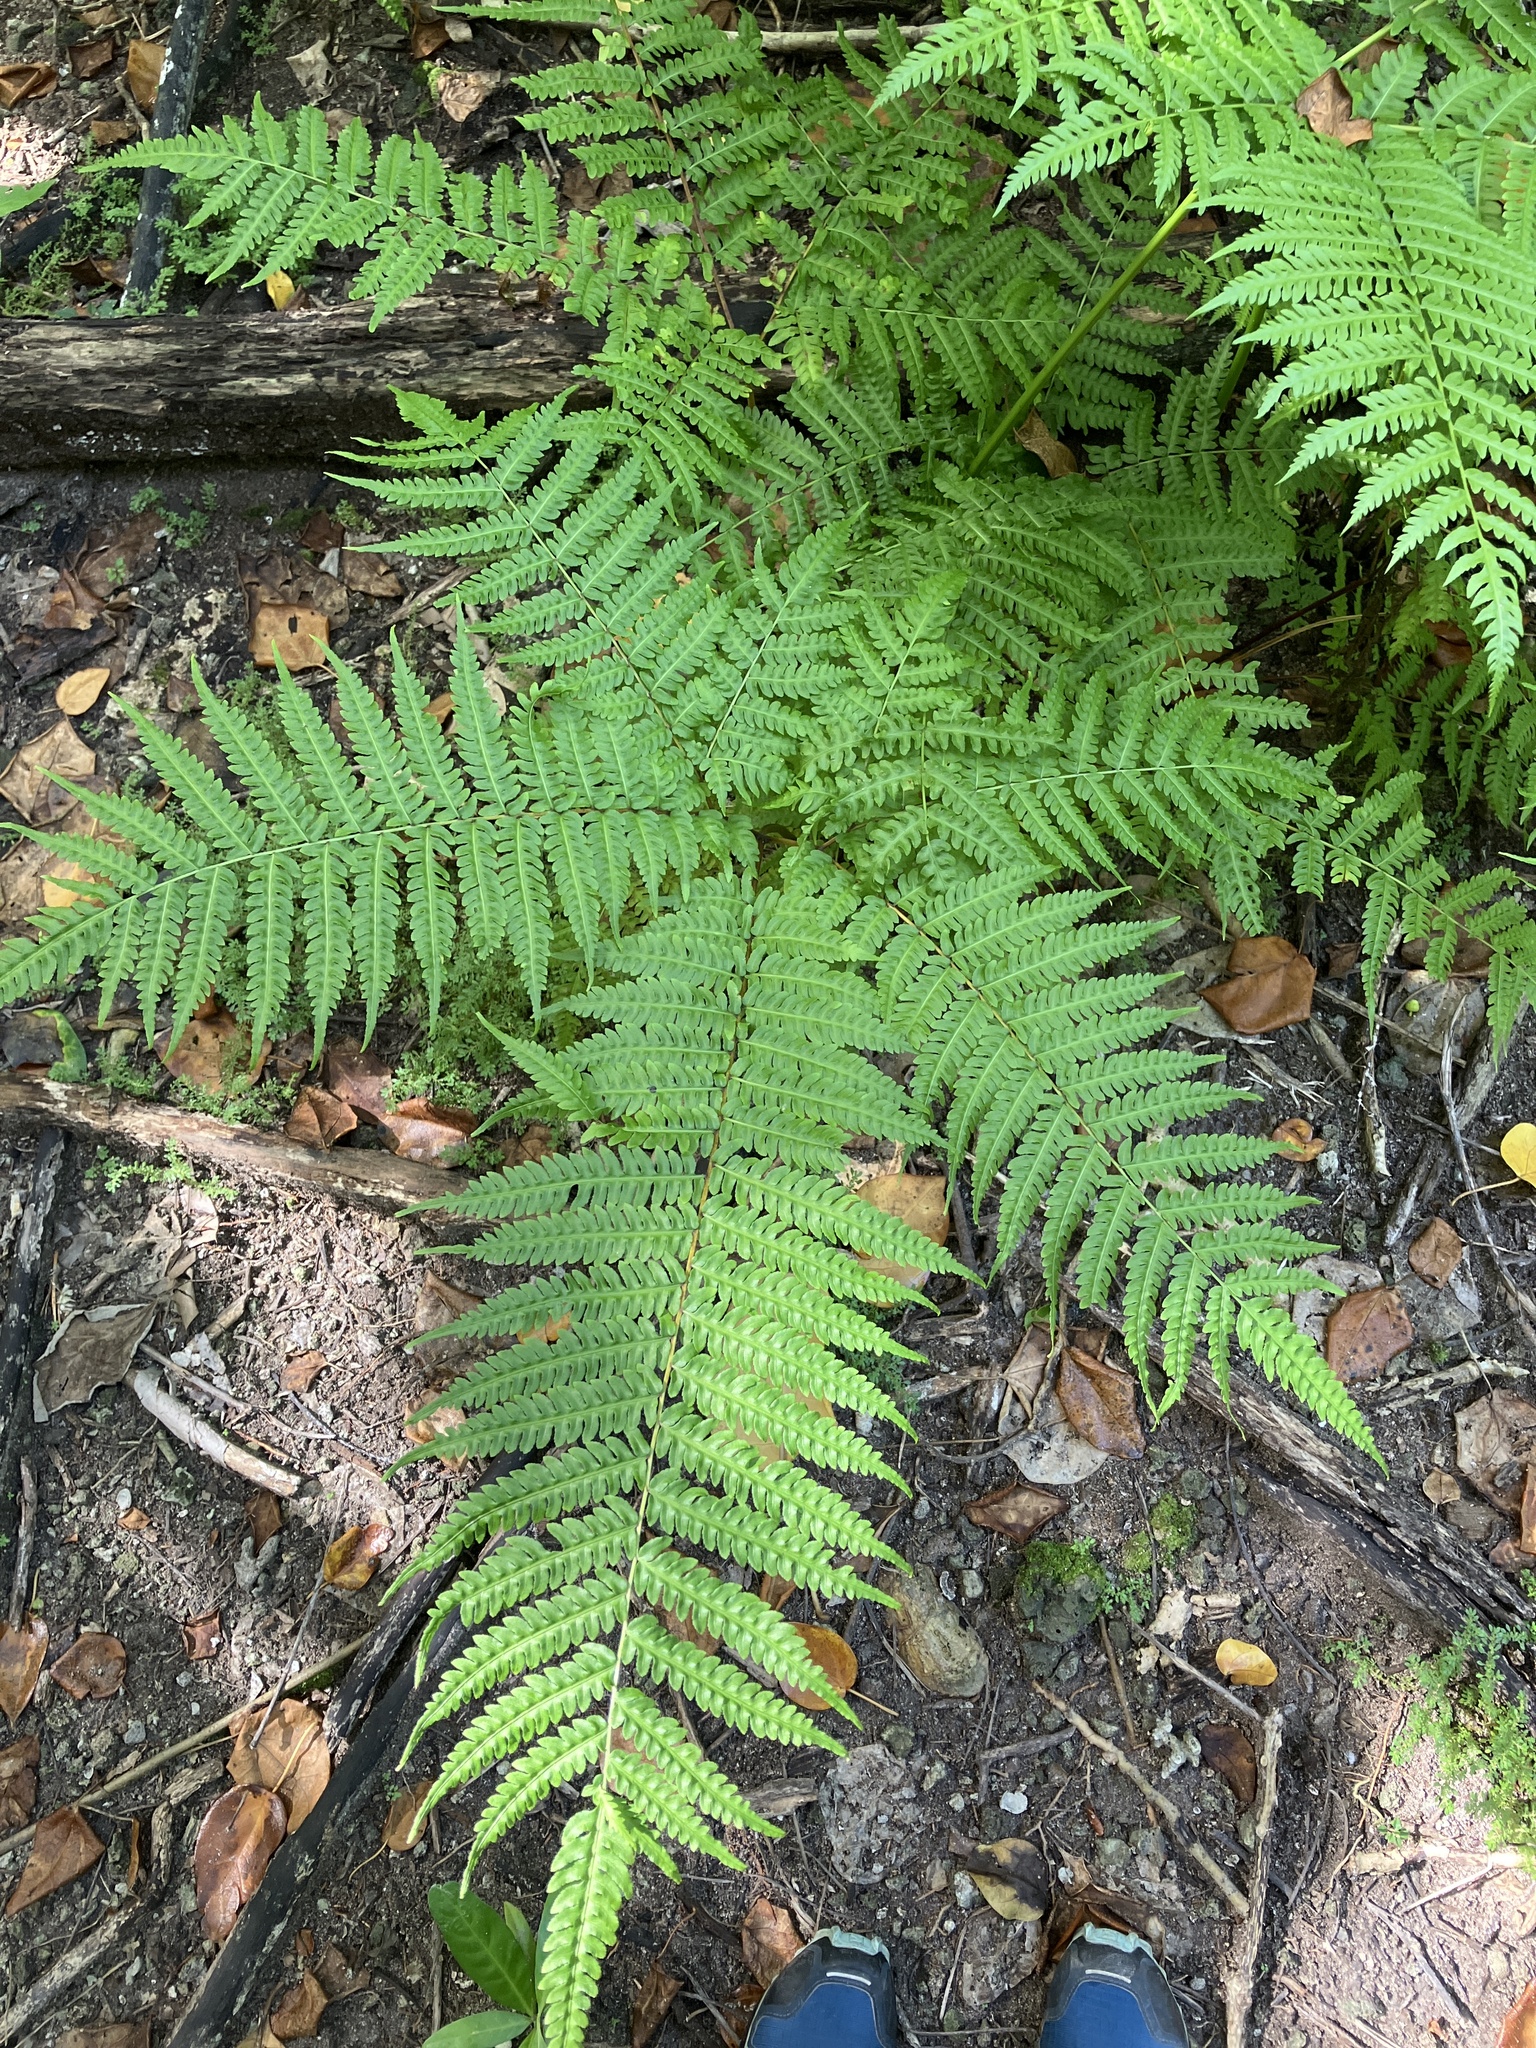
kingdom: Plantae
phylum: Tracheophyta
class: Polypodiopsida
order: Polypodiales
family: Pteridaceae
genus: Pteris
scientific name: Pteris tripartita
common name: Giant brake
